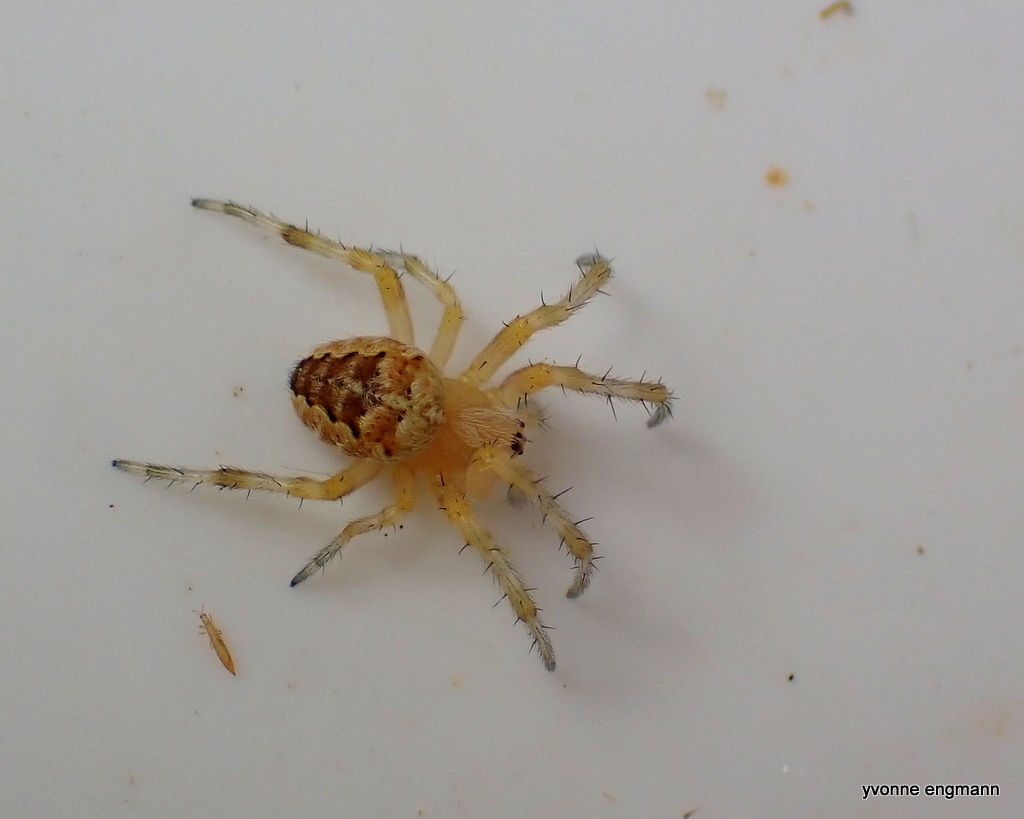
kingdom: Animalia
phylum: Arthropoda
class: Arachnida
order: Araneae
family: Araneidae
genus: Araneus
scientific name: Araneus diadematus
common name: Cross orbweaver
